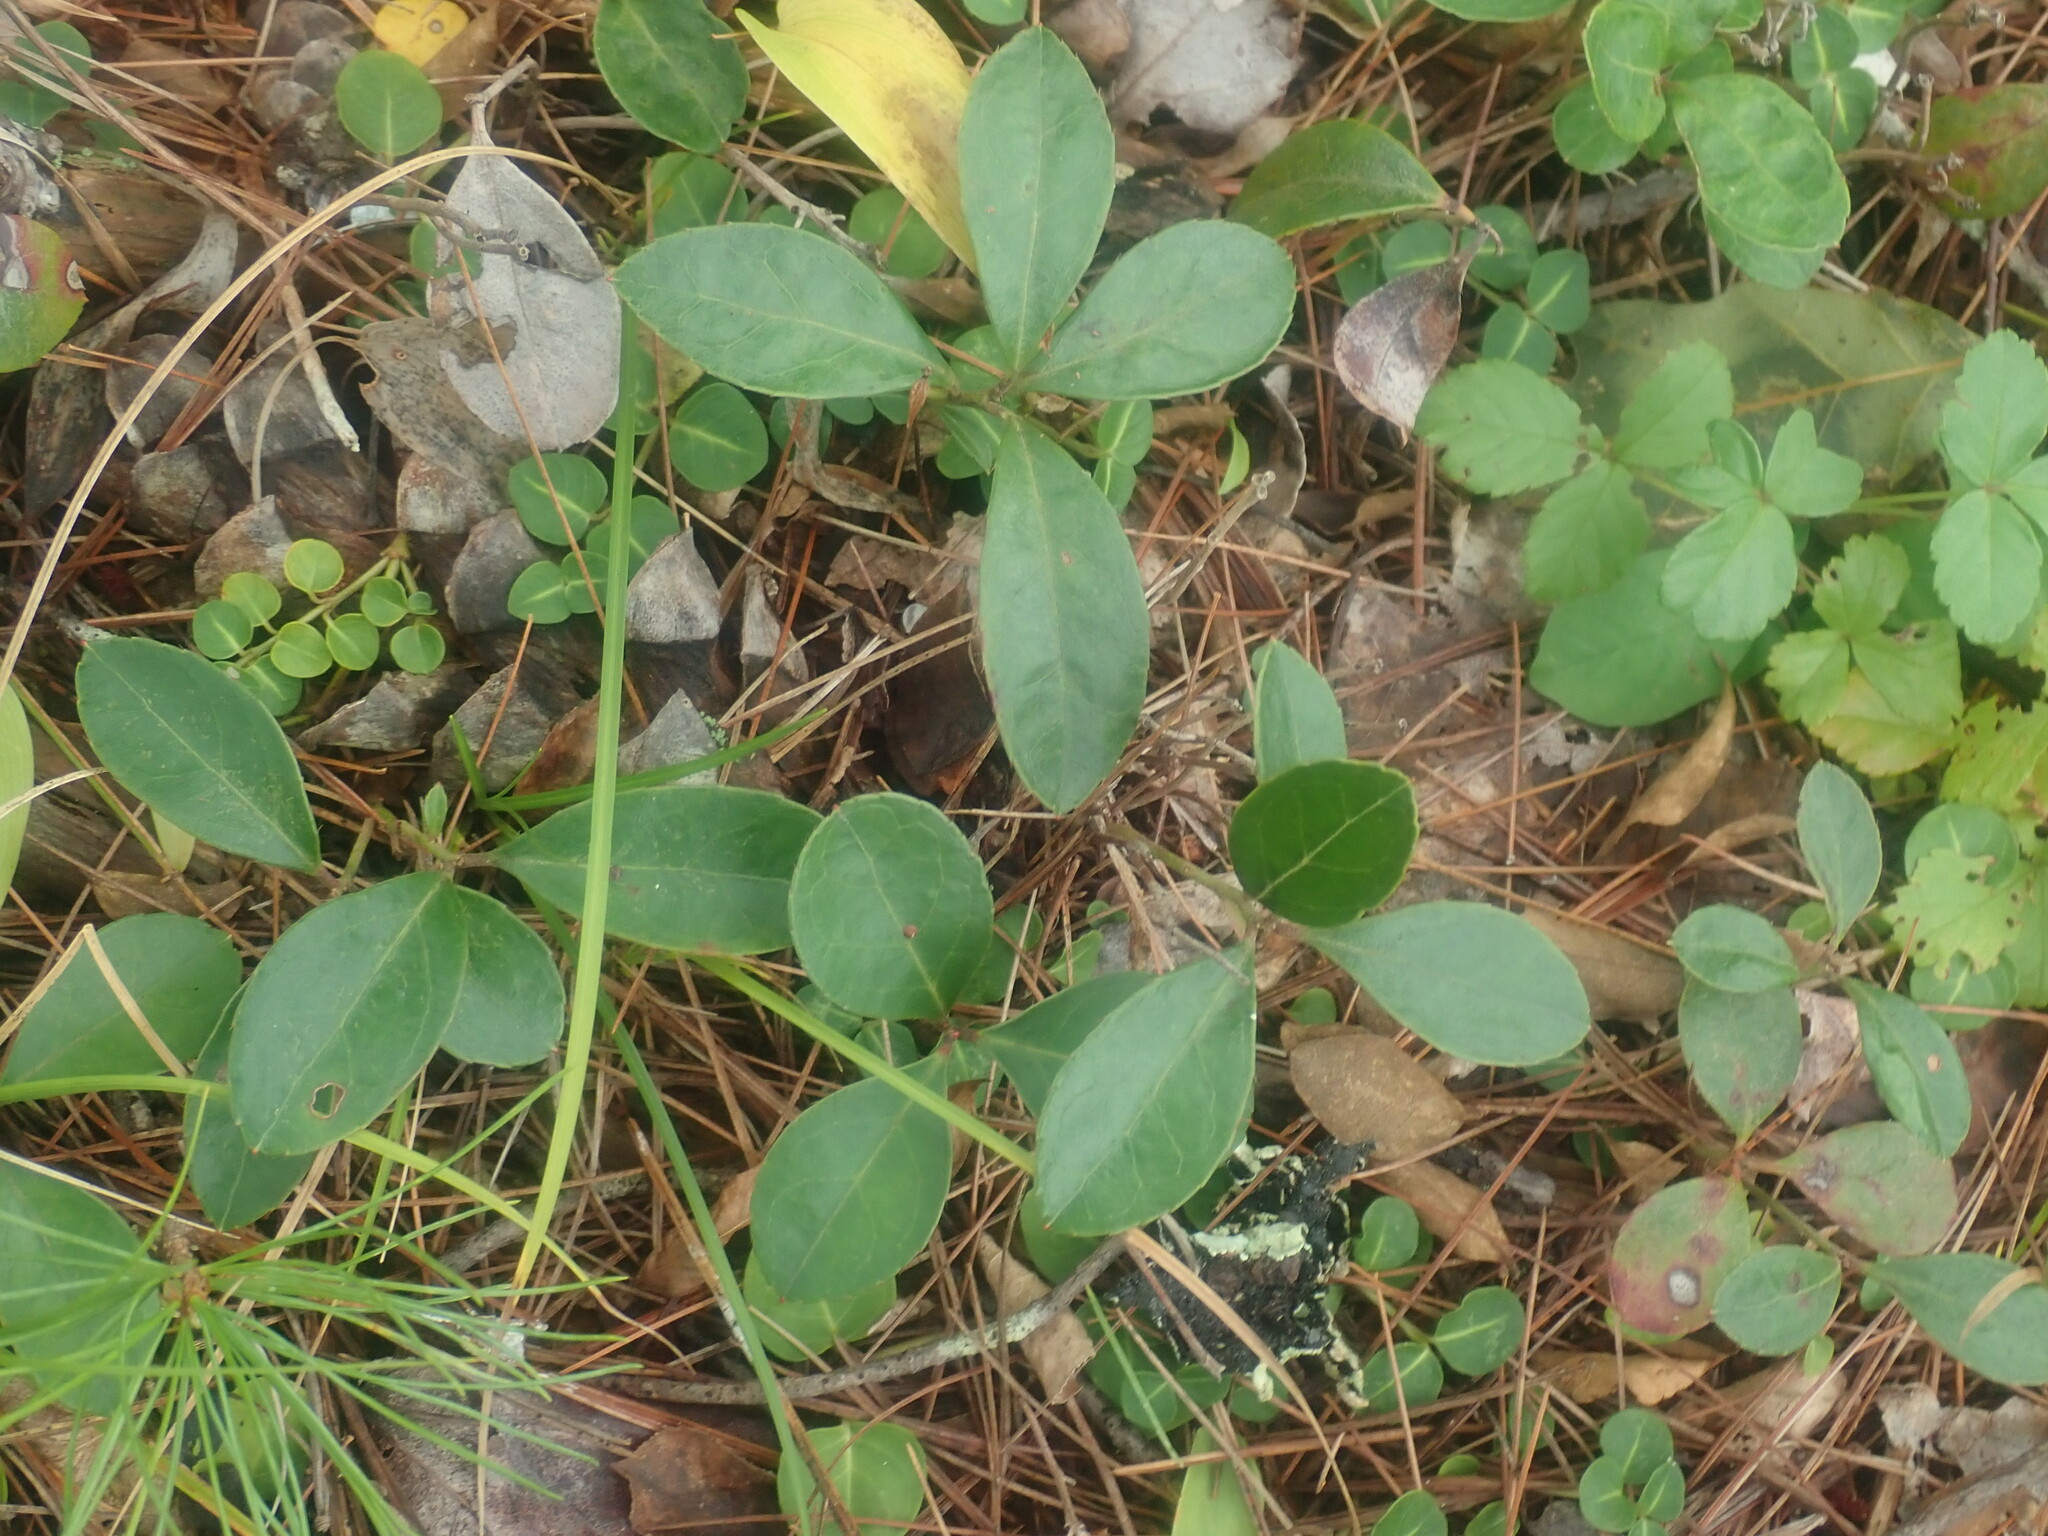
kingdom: Plantae
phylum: Tracheophyta
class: Magnoliopsida
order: Ericales
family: Ericaceae
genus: Gaultheria
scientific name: Gaultheria procumbens
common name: Checkerberry
